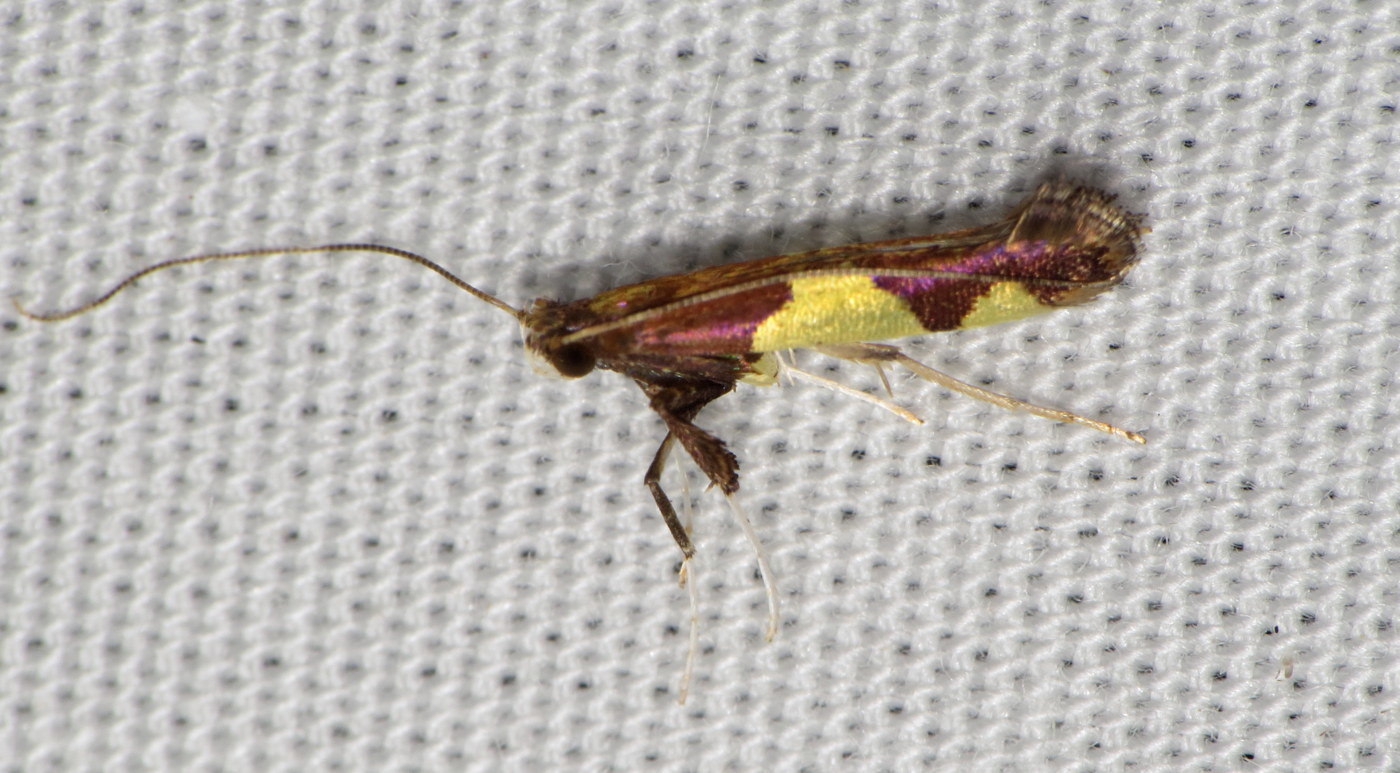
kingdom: Animalia
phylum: Arthropoda
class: Insecta
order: Lepidoptera
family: Gracillariidae
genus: Caloptilia
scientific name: Caloptilia bimaculatella
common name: Maple caloptilia moth
